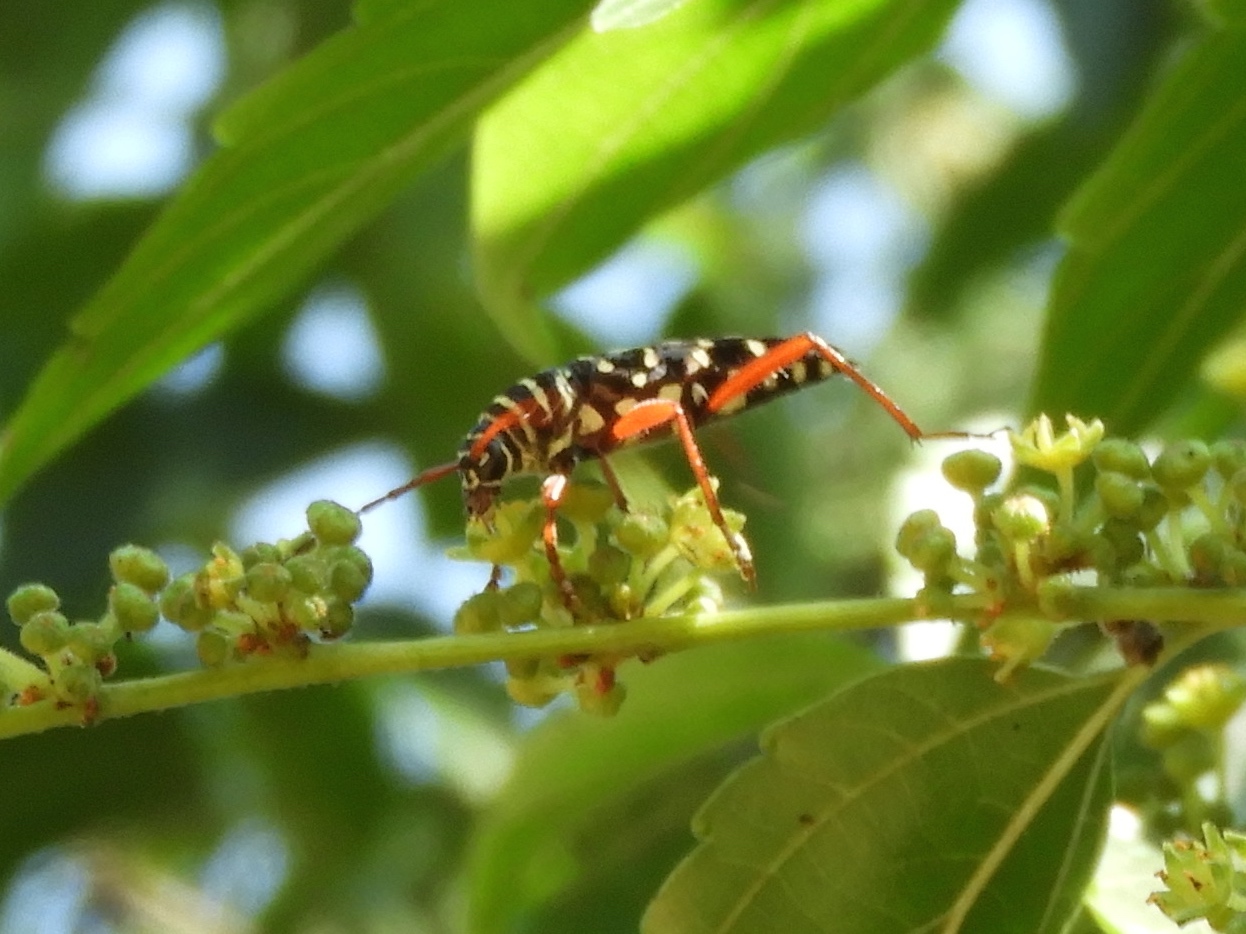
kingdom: Animalia
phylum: Arthropoda
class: Insecta
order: Coleoptera
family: Cerambycidae
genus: Placosternus
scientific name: Placosternus
